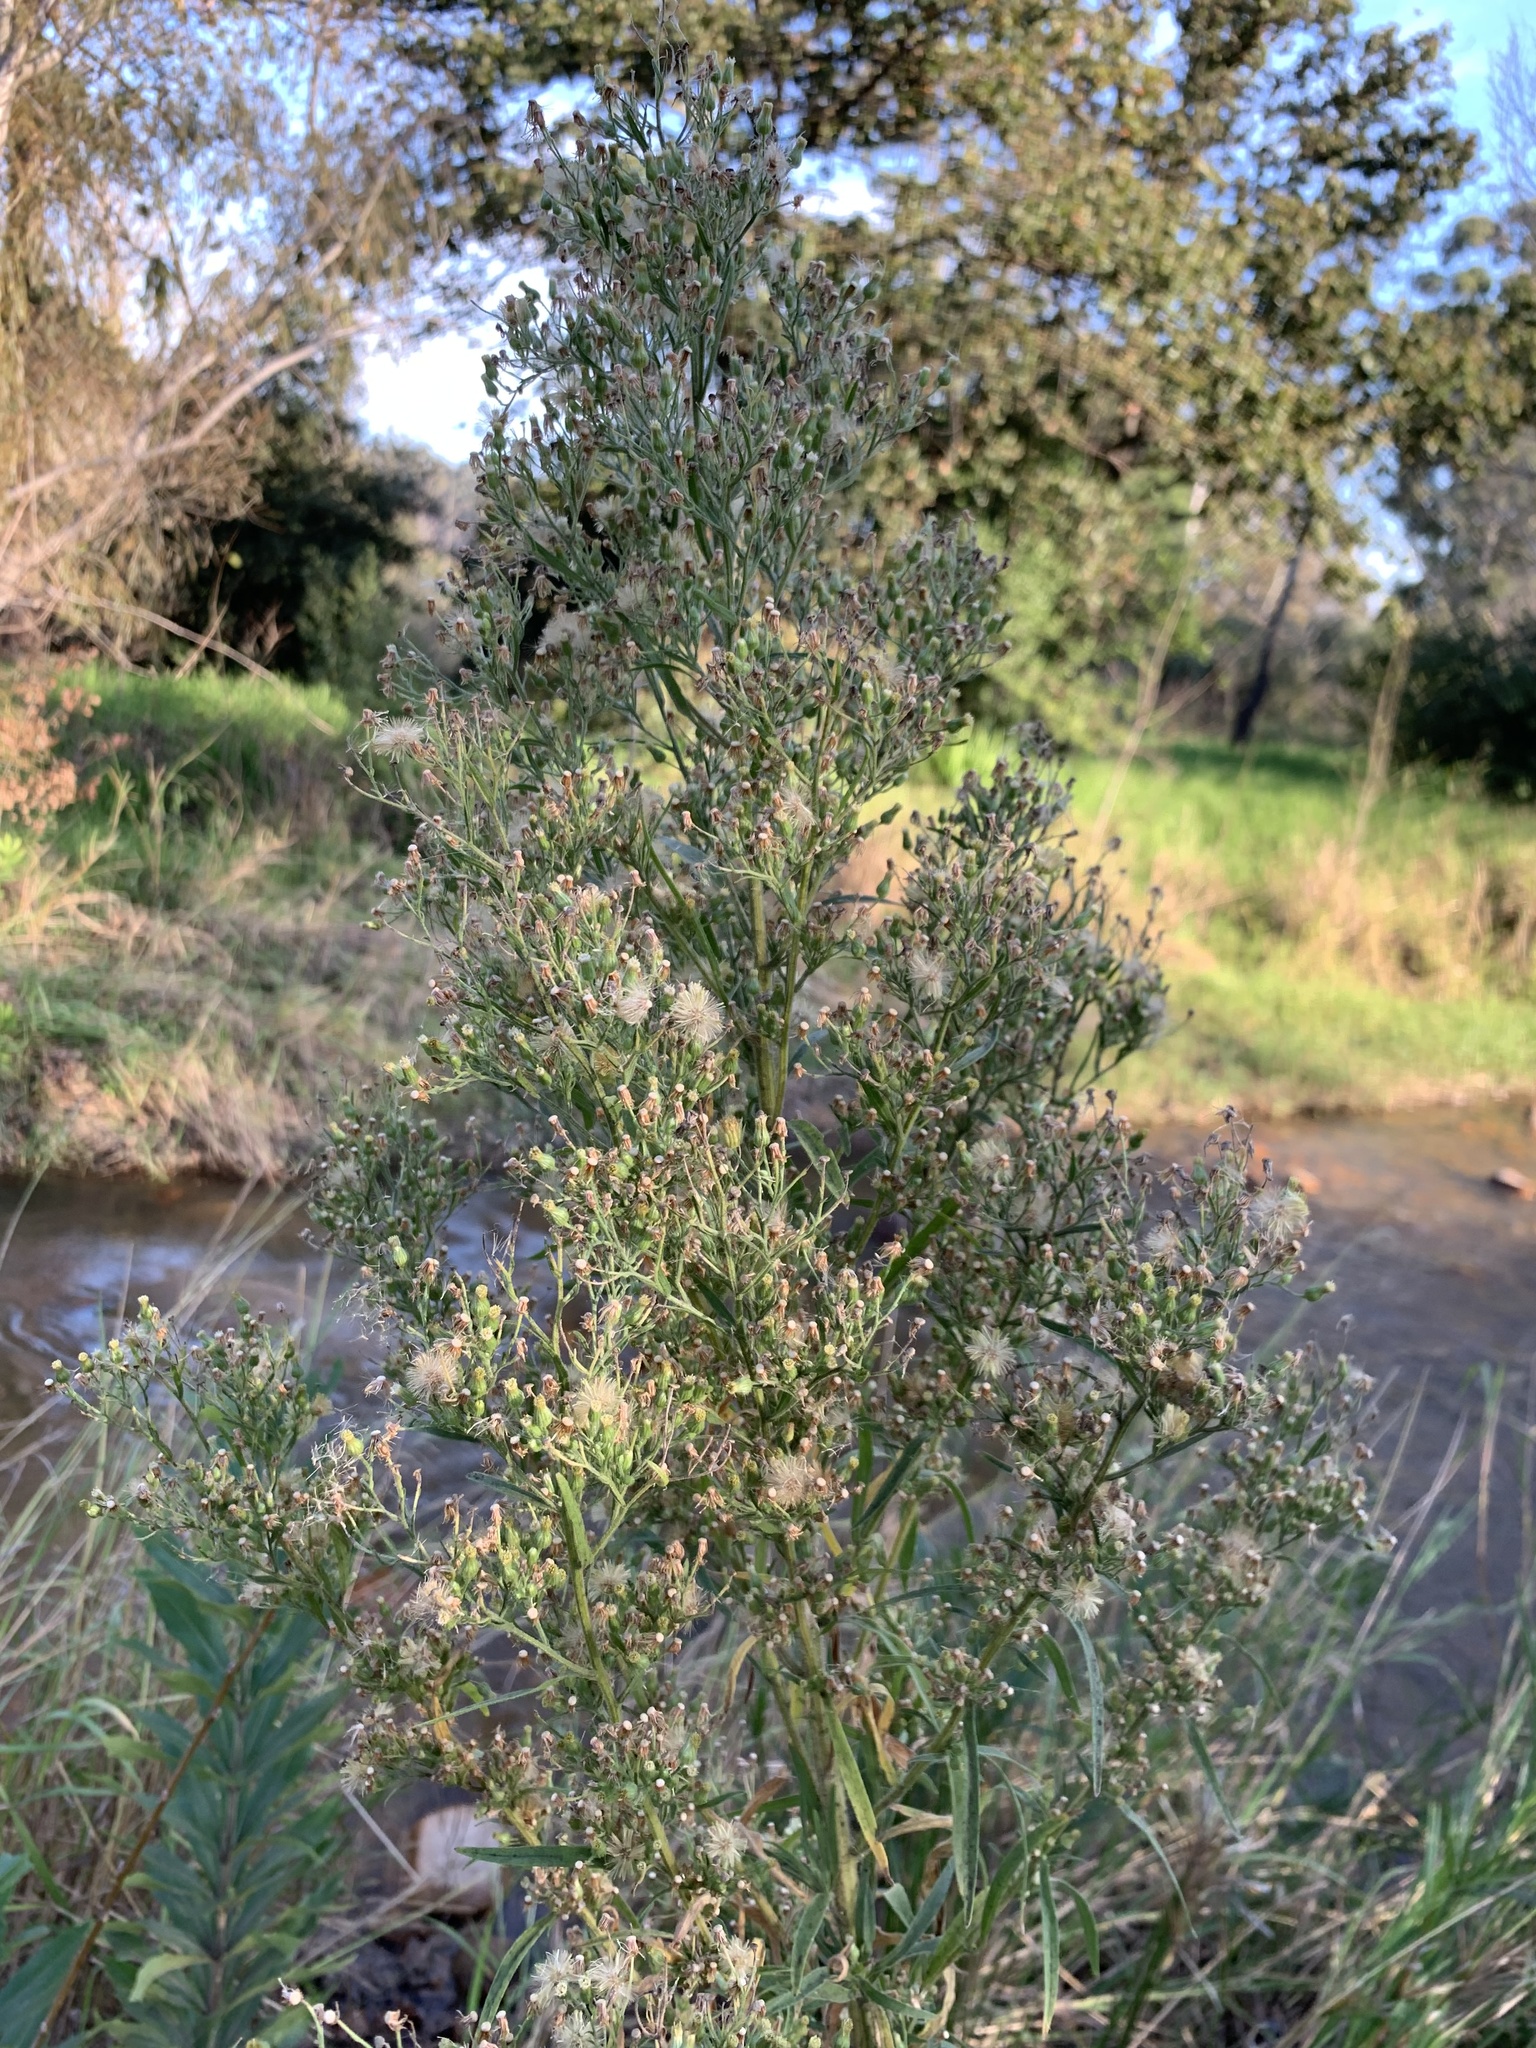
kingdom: Plantae
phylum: Tracheophyta
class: Magnoliopsida
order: Asterales
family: Asteraceae
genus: Erigeron
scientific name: Erigeron sumatrensis
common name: Daisy
